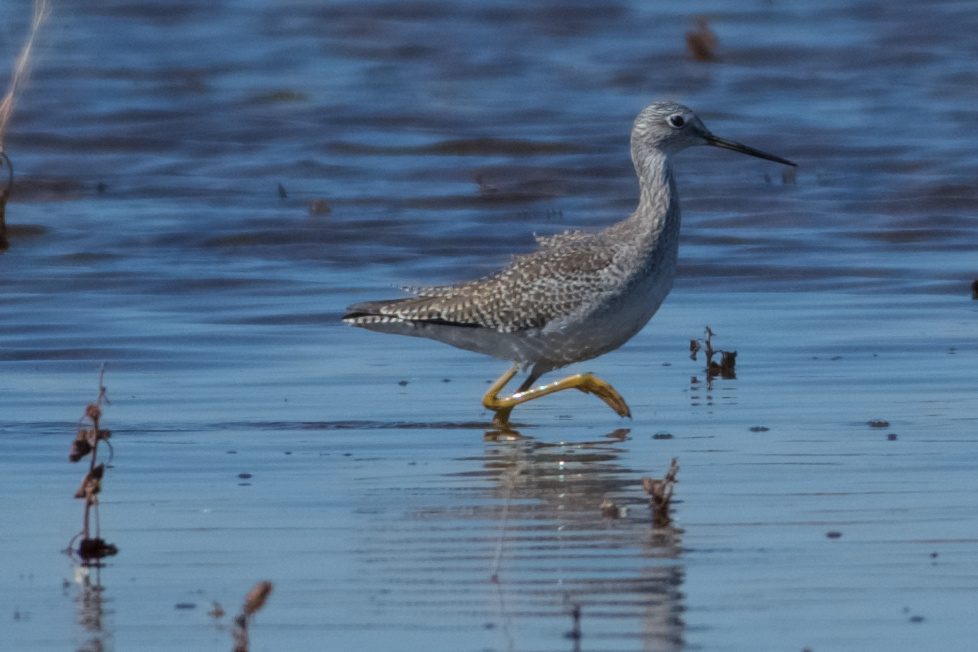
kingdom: Animalia
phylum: Chordata
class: Aves
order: Charadriiformes
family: Scolopacidae
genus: Tringa
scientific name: Tringa melanoleuca
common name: Greater yellowlegs
